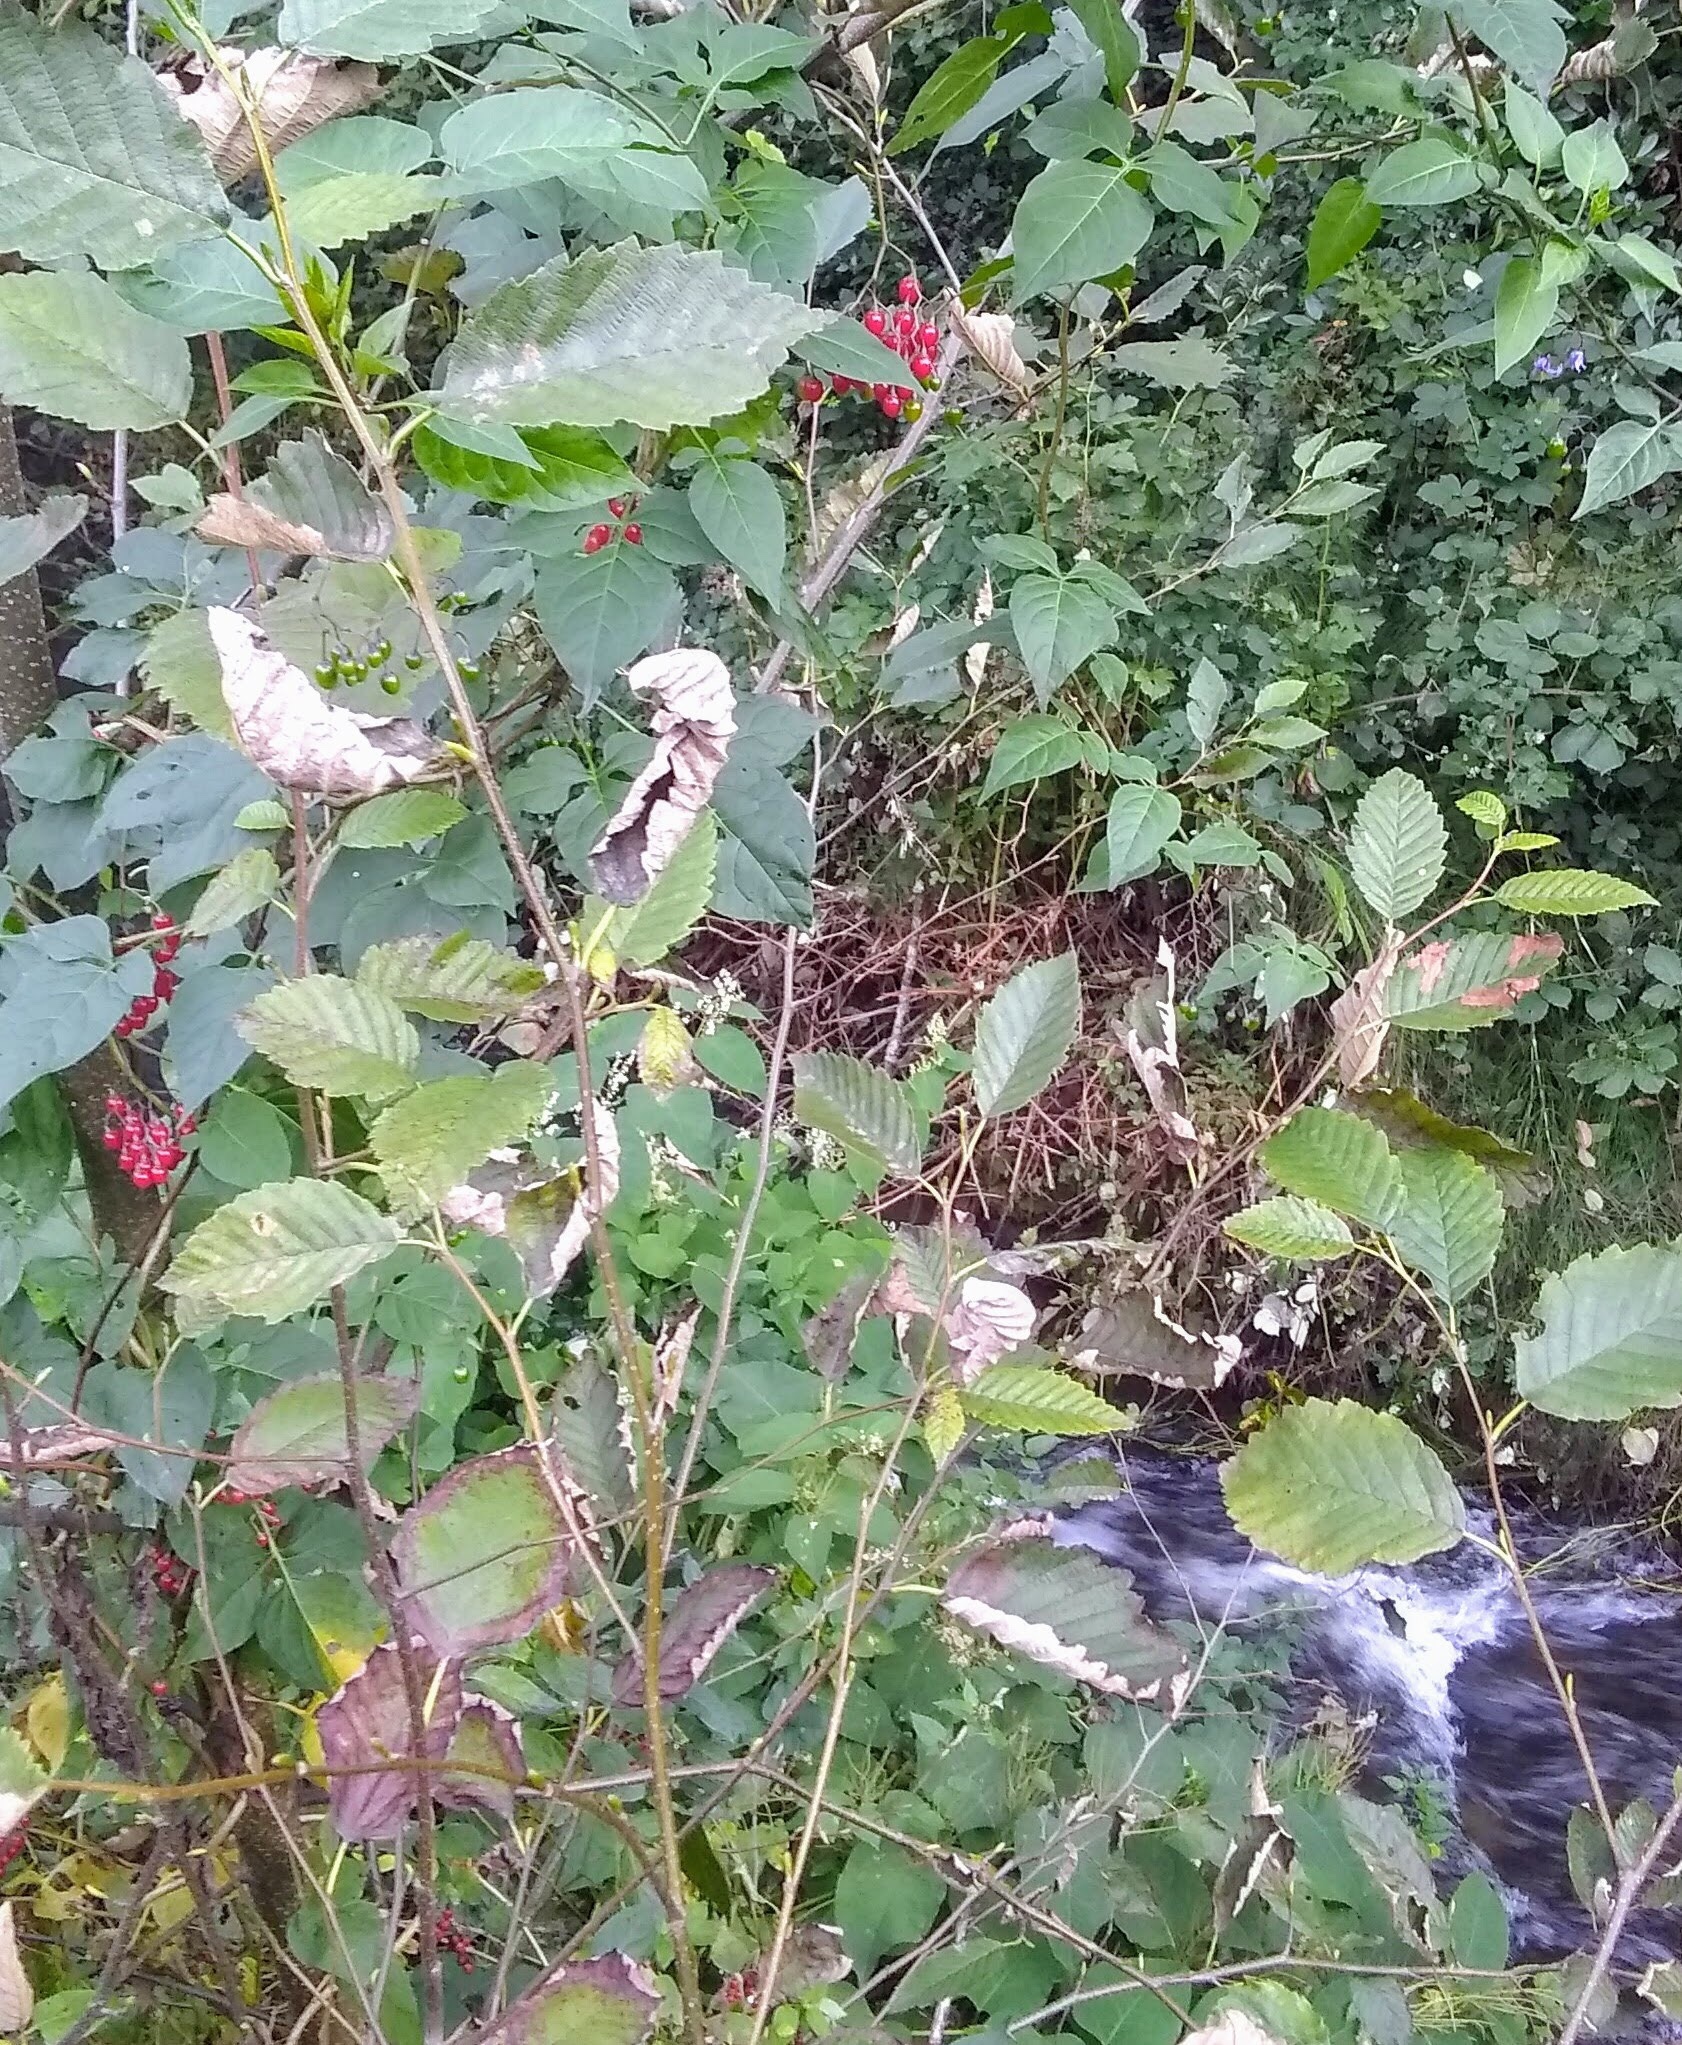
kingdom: Plantae
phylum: Tracheophyta
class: Magnoliopsida
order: Solanales
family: Solanaceae
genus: Solanum
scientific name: Solanum dulcamara
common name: Climbing nightshade
